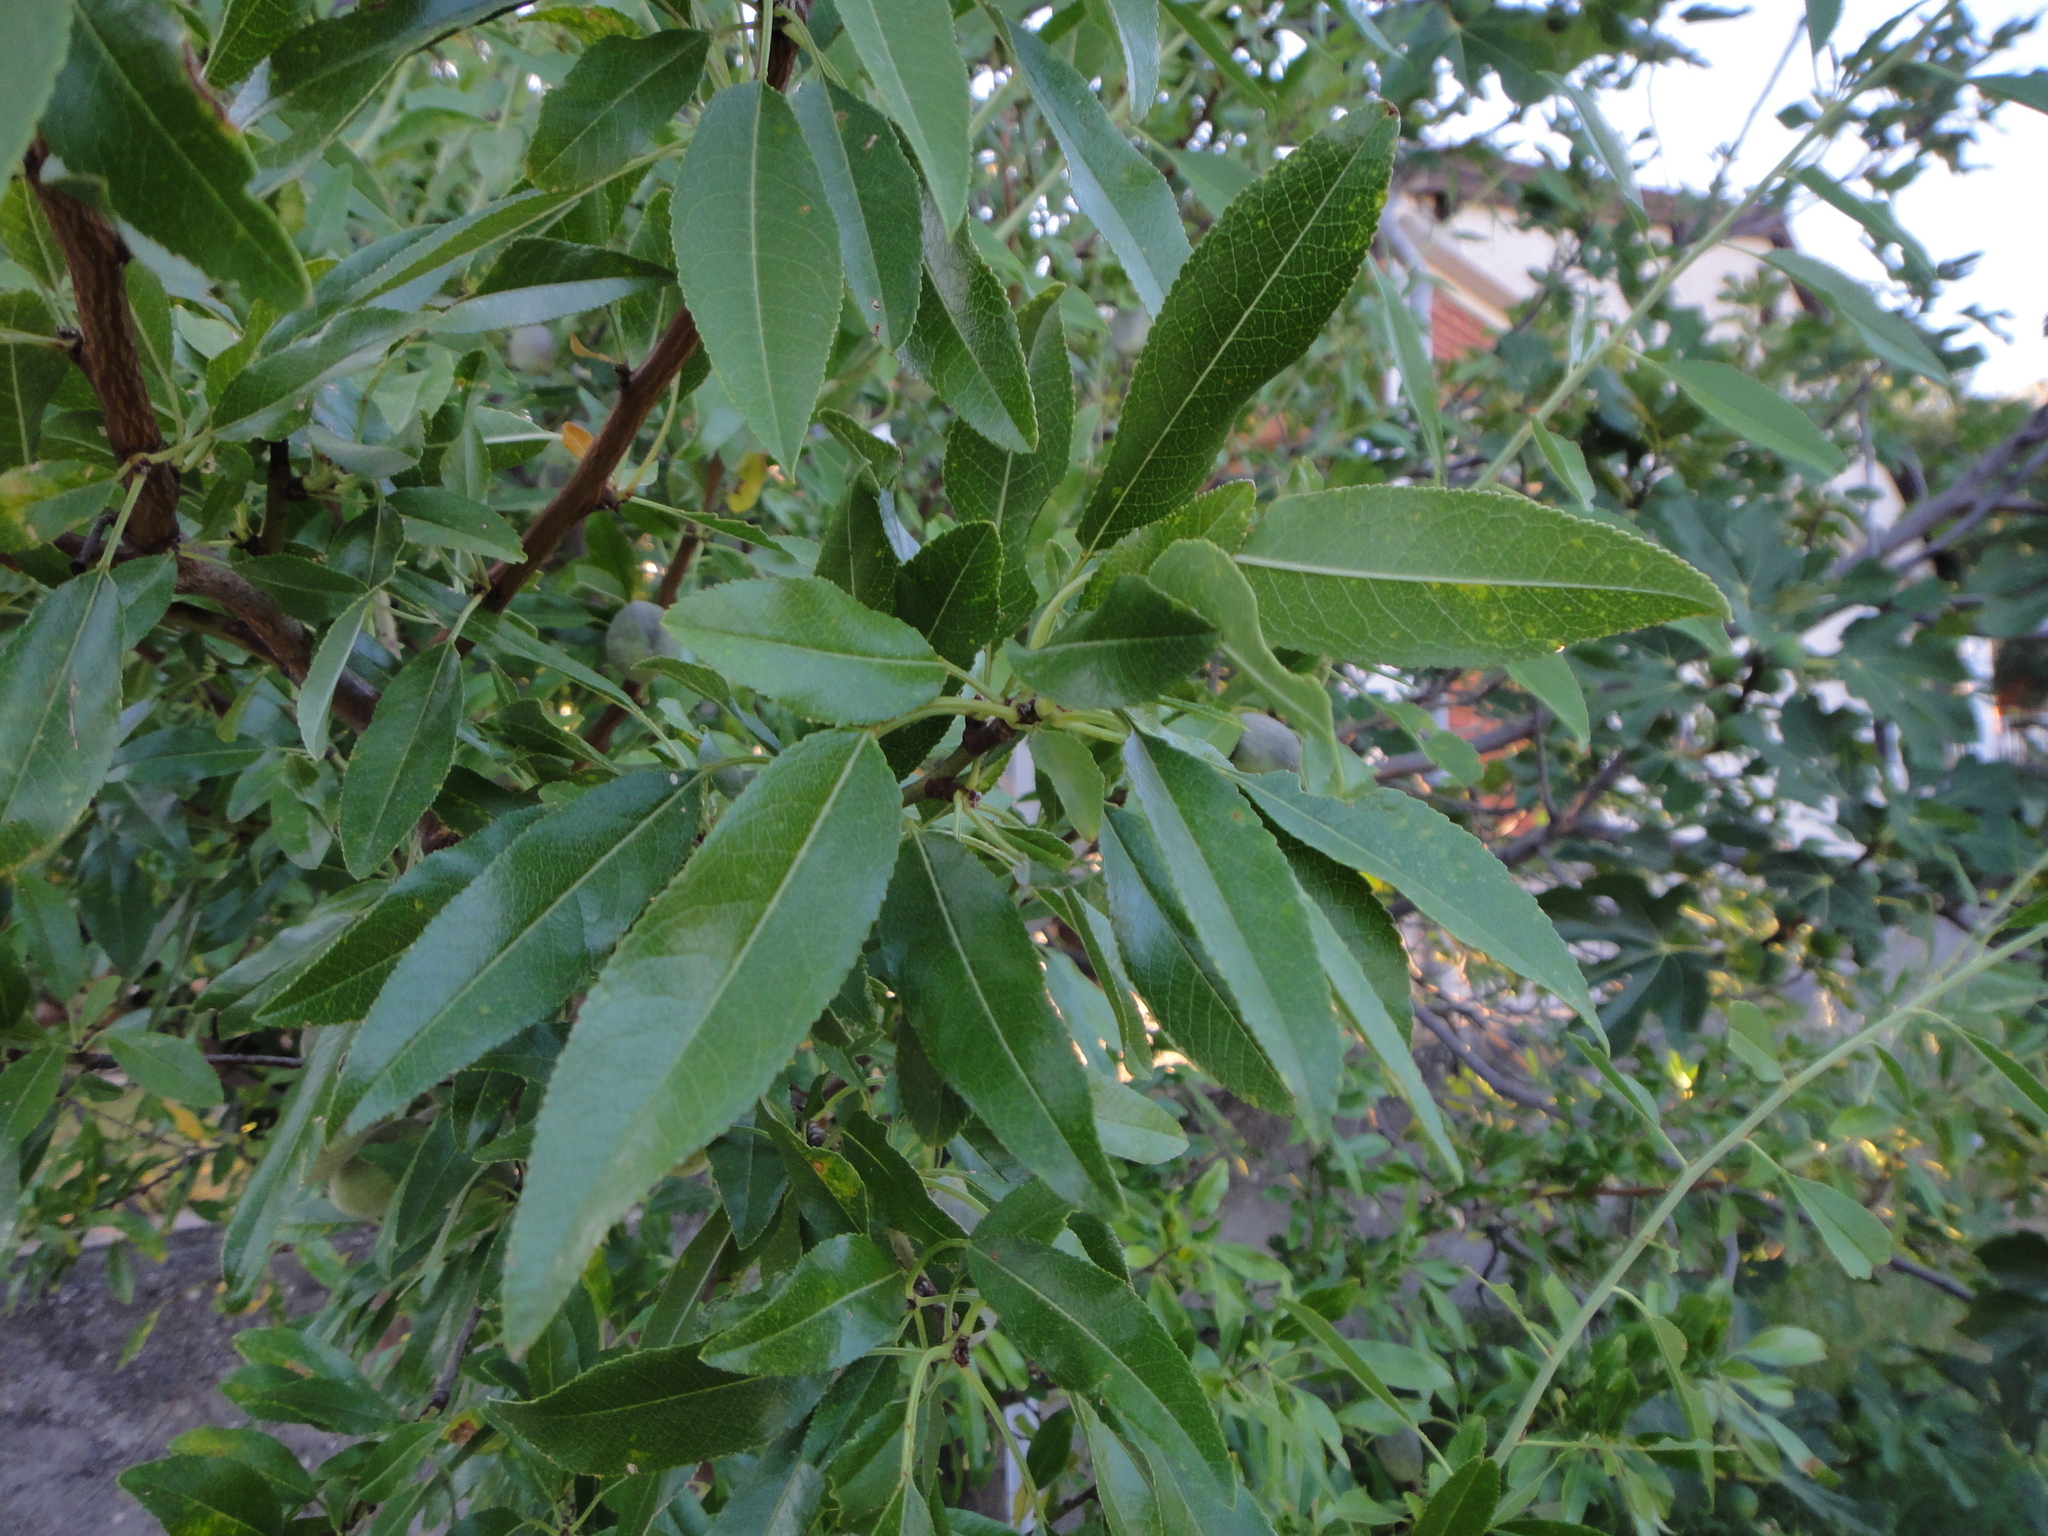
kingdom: Plantae
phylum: Tracheophyta
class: Magnoliopsida
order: Rosales
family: Rosaceae
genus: Prunus
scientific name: Prunus amygdalus
